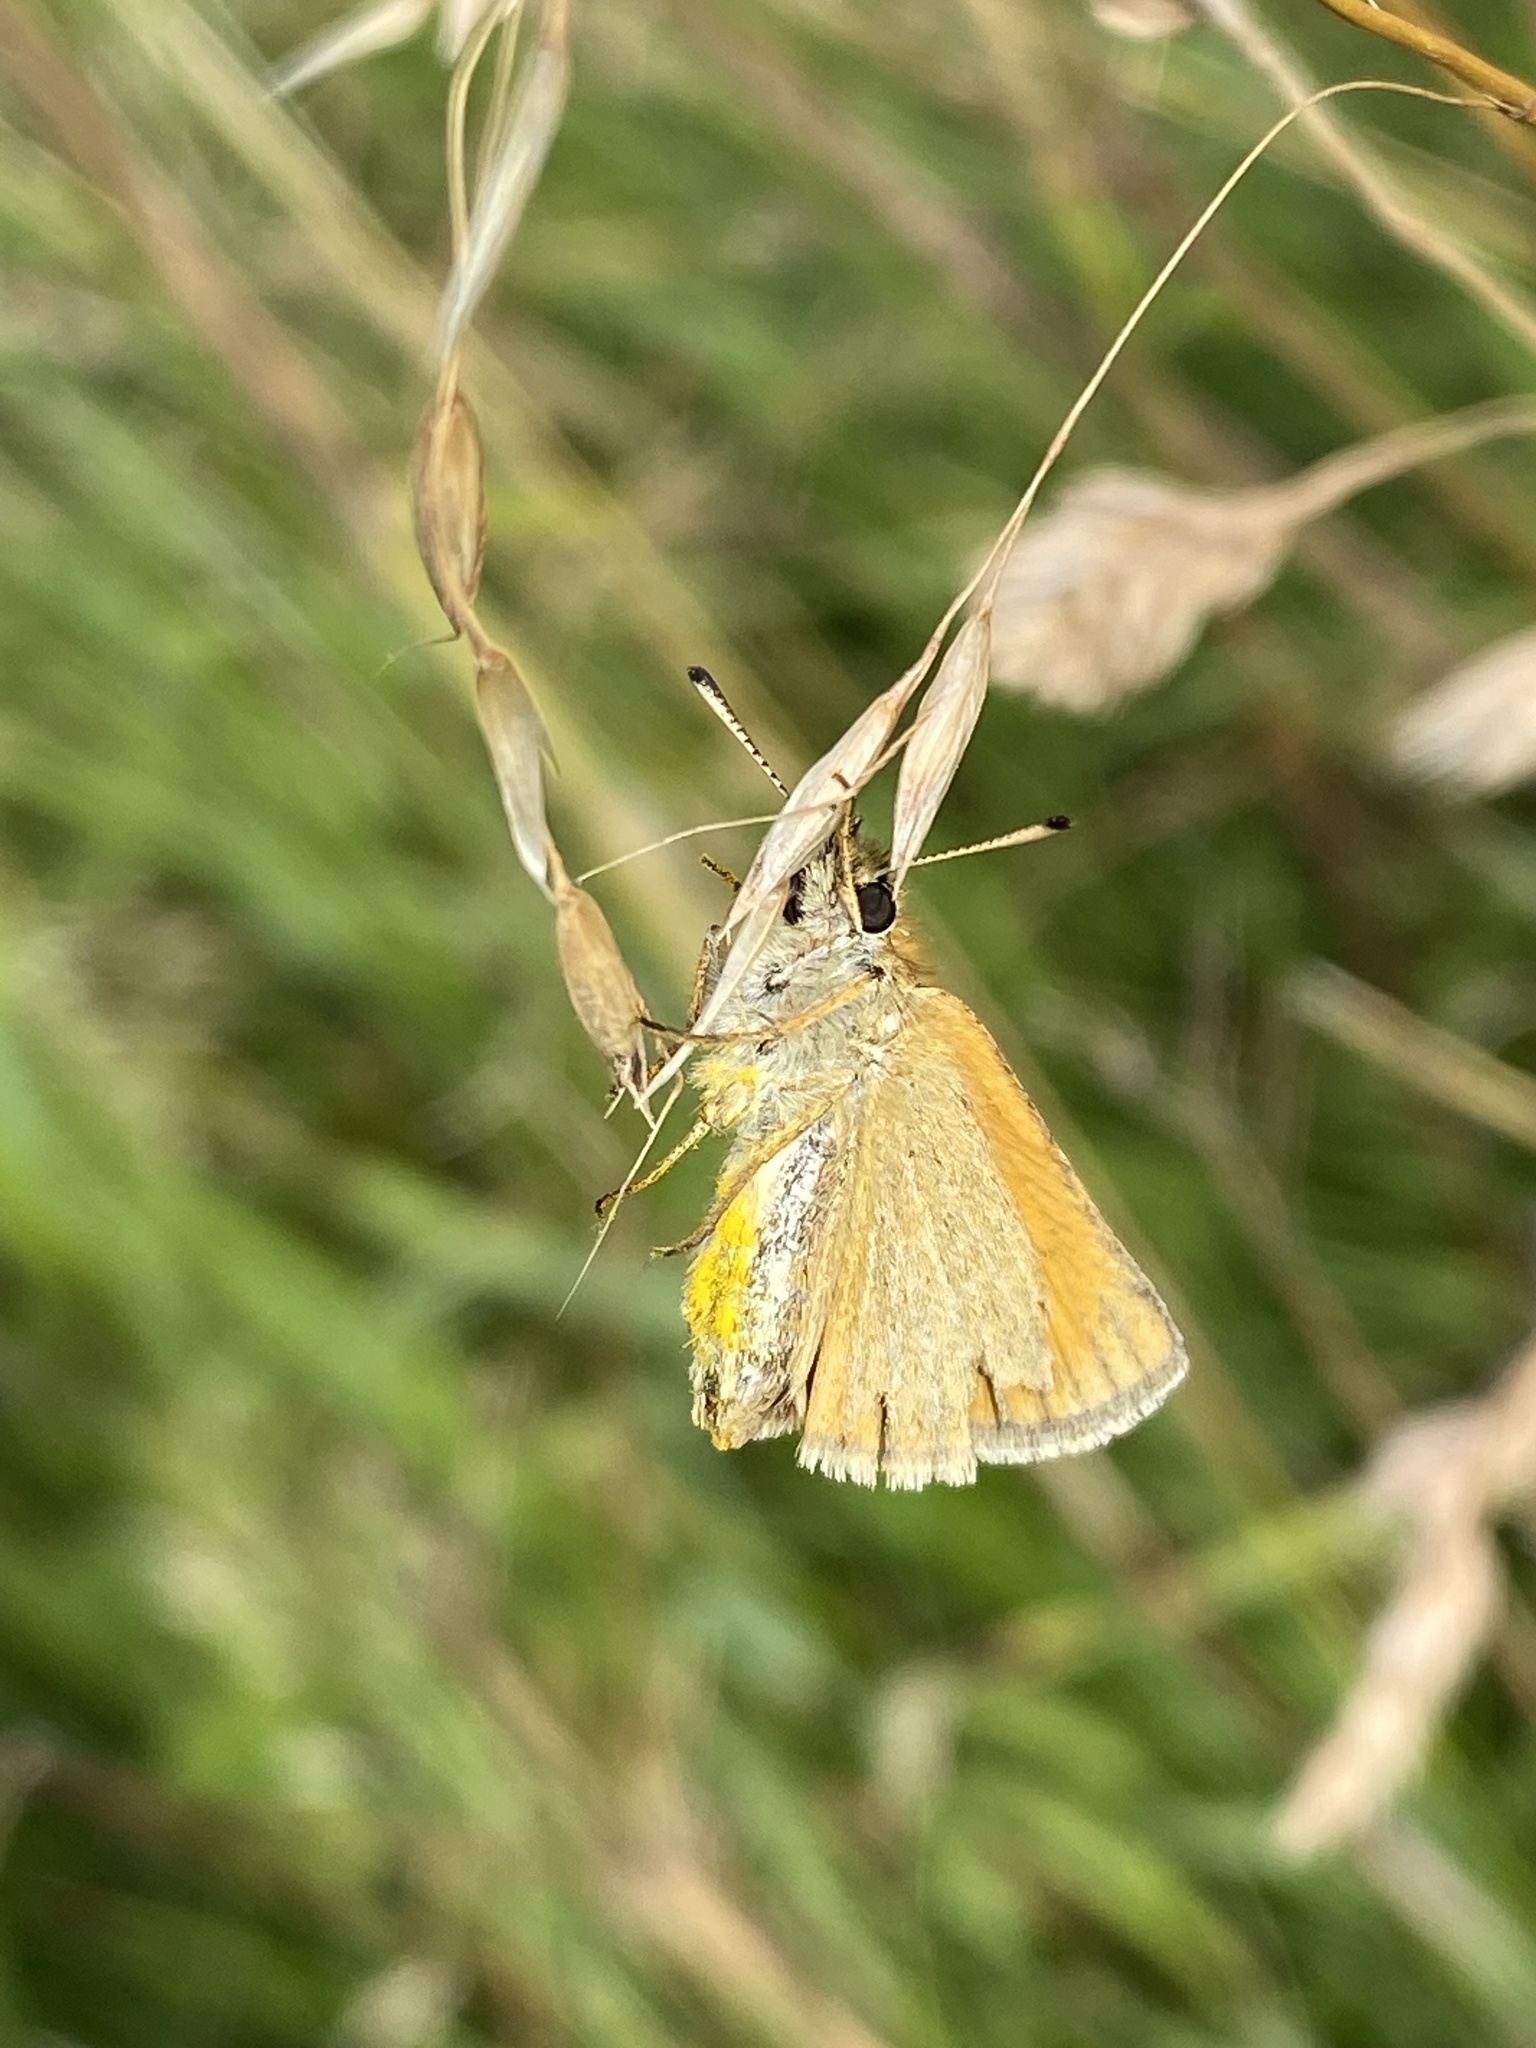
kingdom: Animalia
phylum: Arthropoda
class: Insecta
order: Lepidoptera
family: Hesperiidae
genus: Thymelicus
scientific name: Thymelicus lineola
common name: Essex skipper
